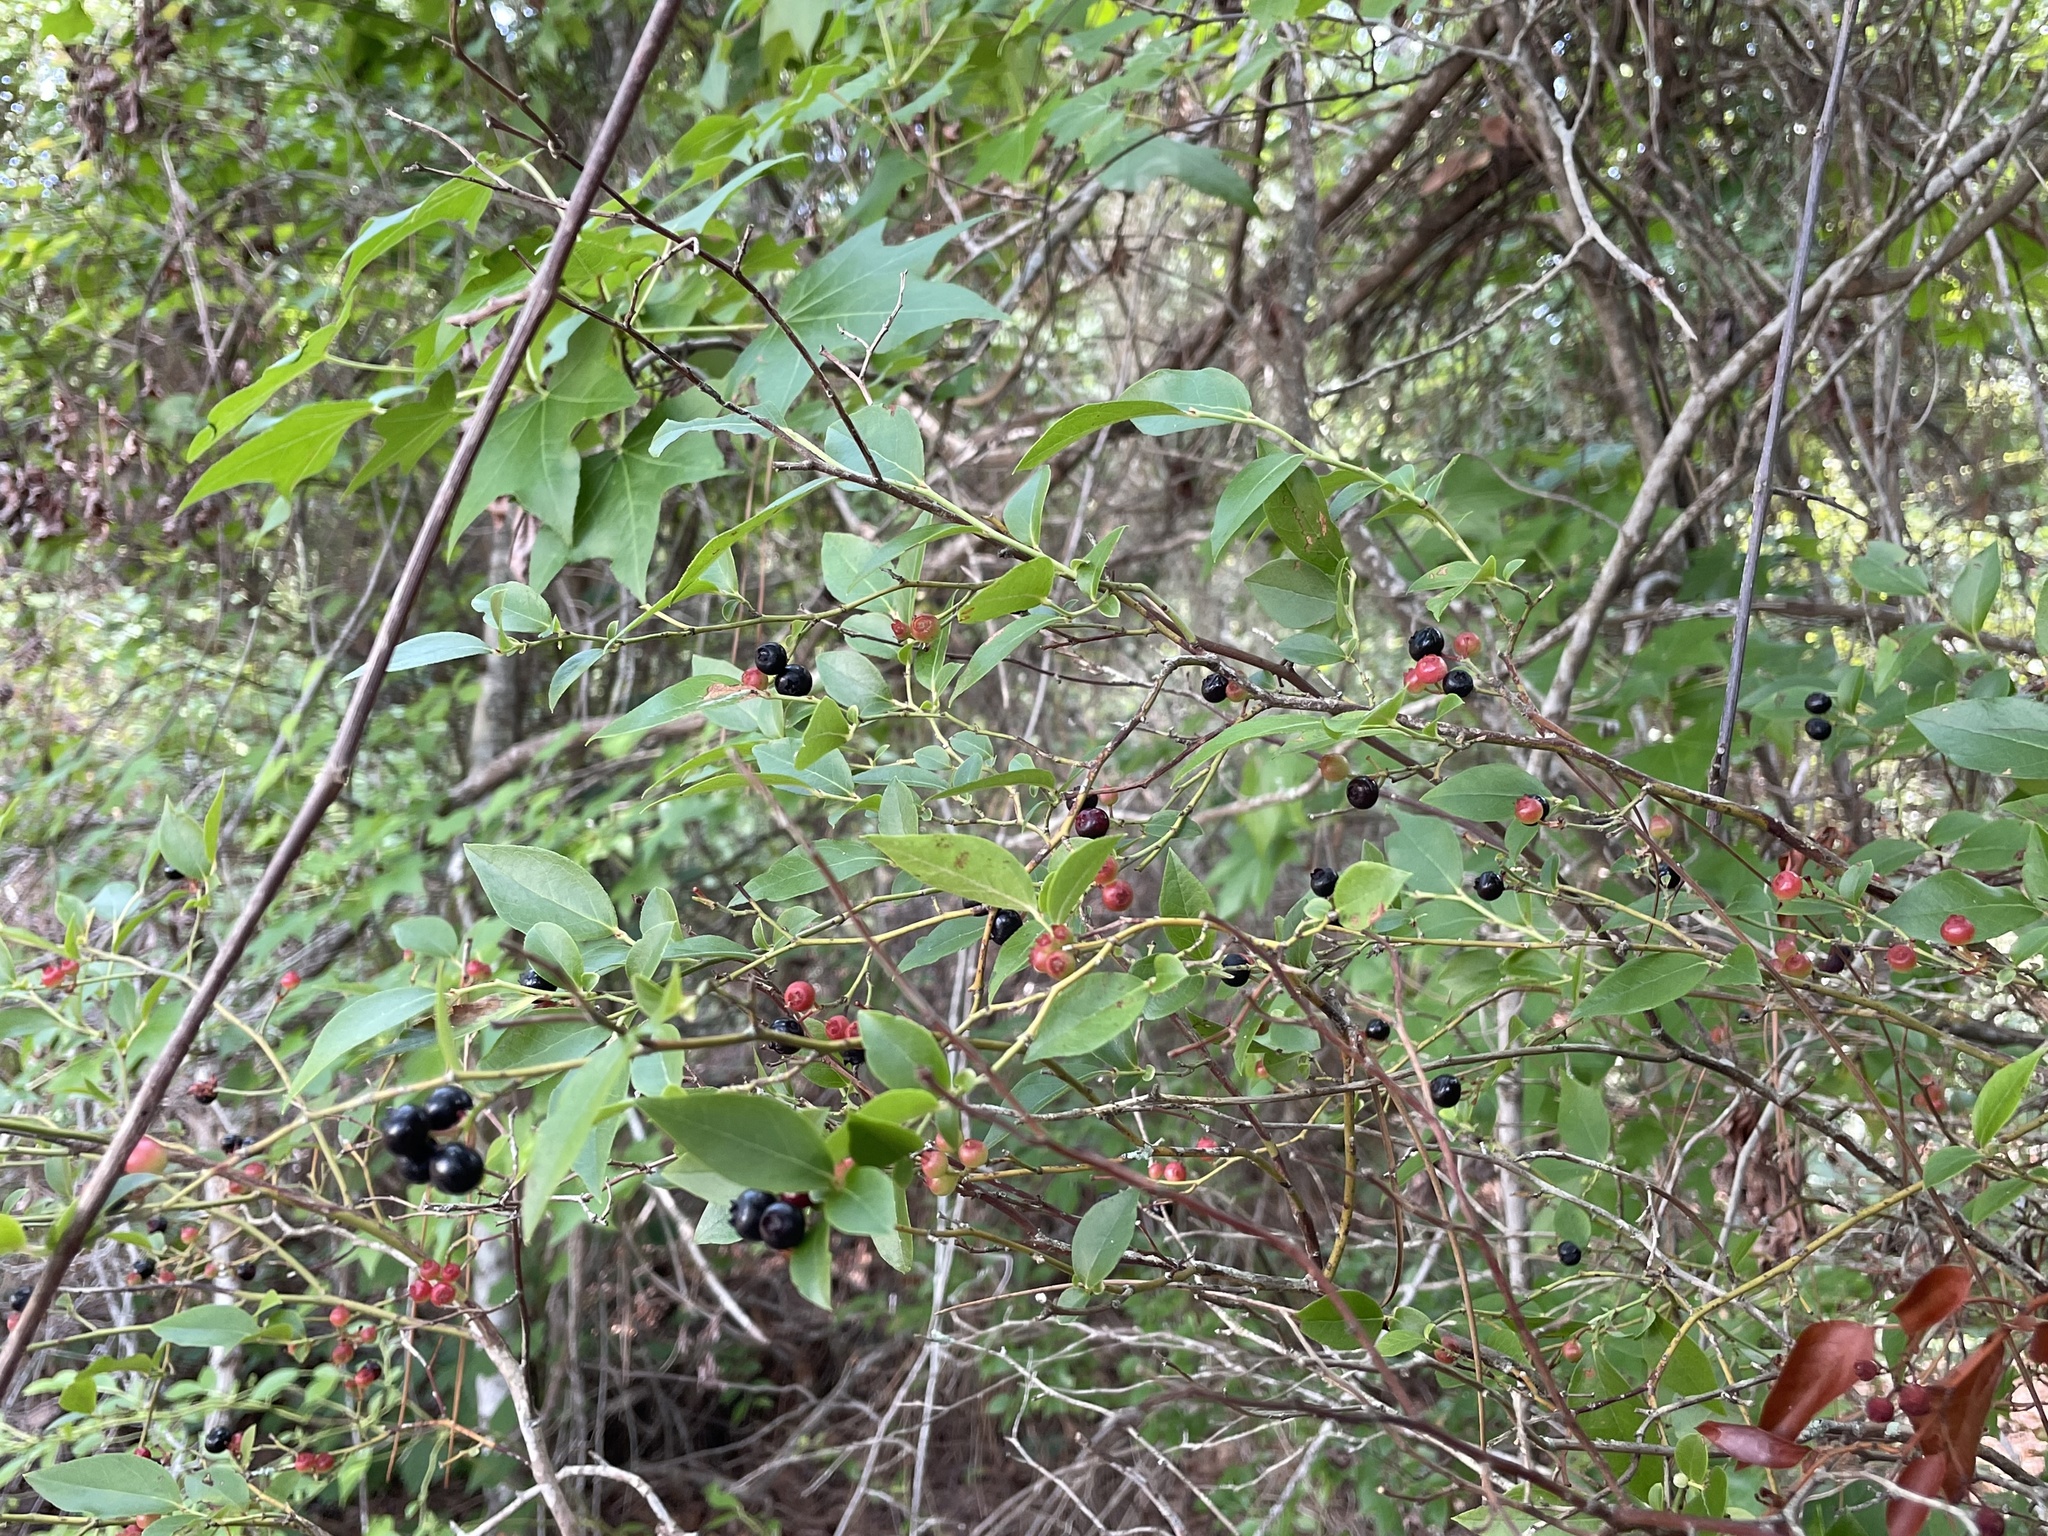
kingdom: Plantae
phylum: Tracheophyta
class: Magnoliopsida
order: Ericales
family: Ericaceae
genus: Vaccinium
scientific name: Vaccinium corymbosum
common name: Blueberry
